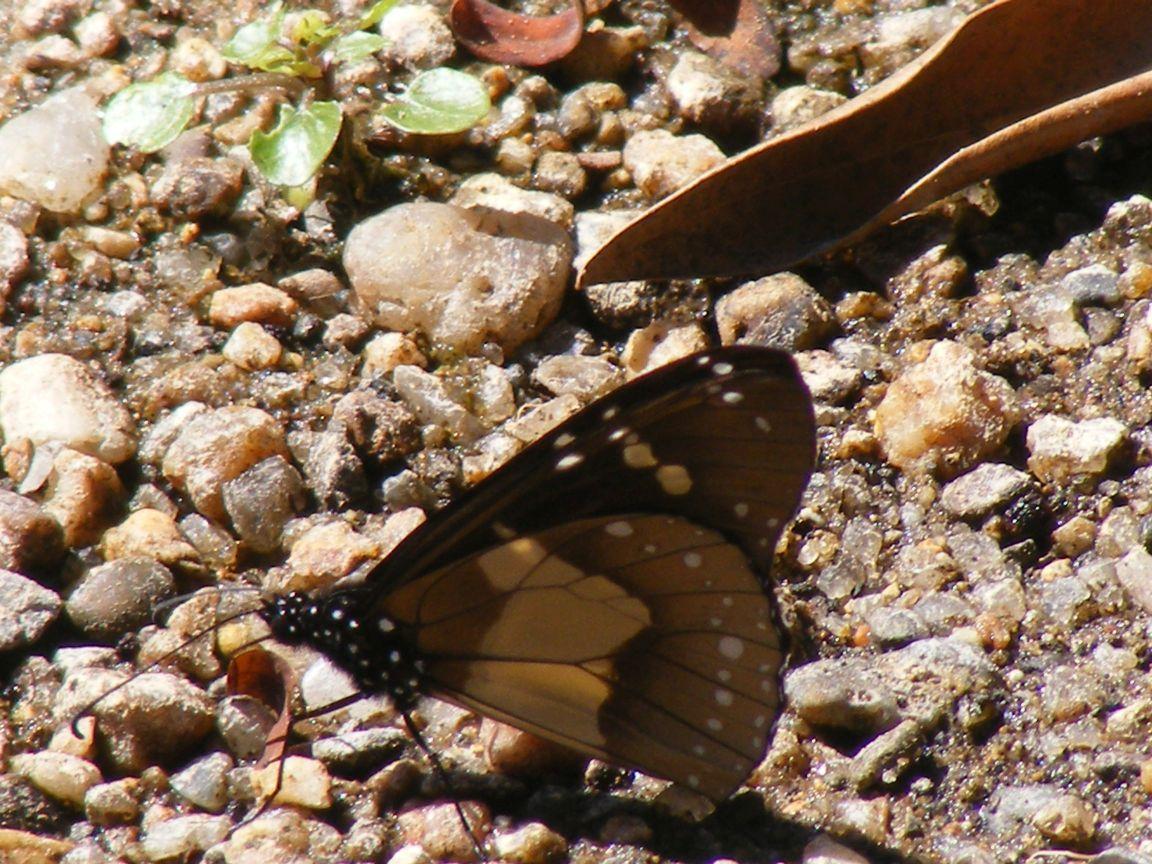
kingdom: Animalia
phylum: Arthropoda
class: Insecta
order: Lepidoptera
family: Nymphalidae
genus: Amauris
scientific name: Amauris echeria
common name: Chief
